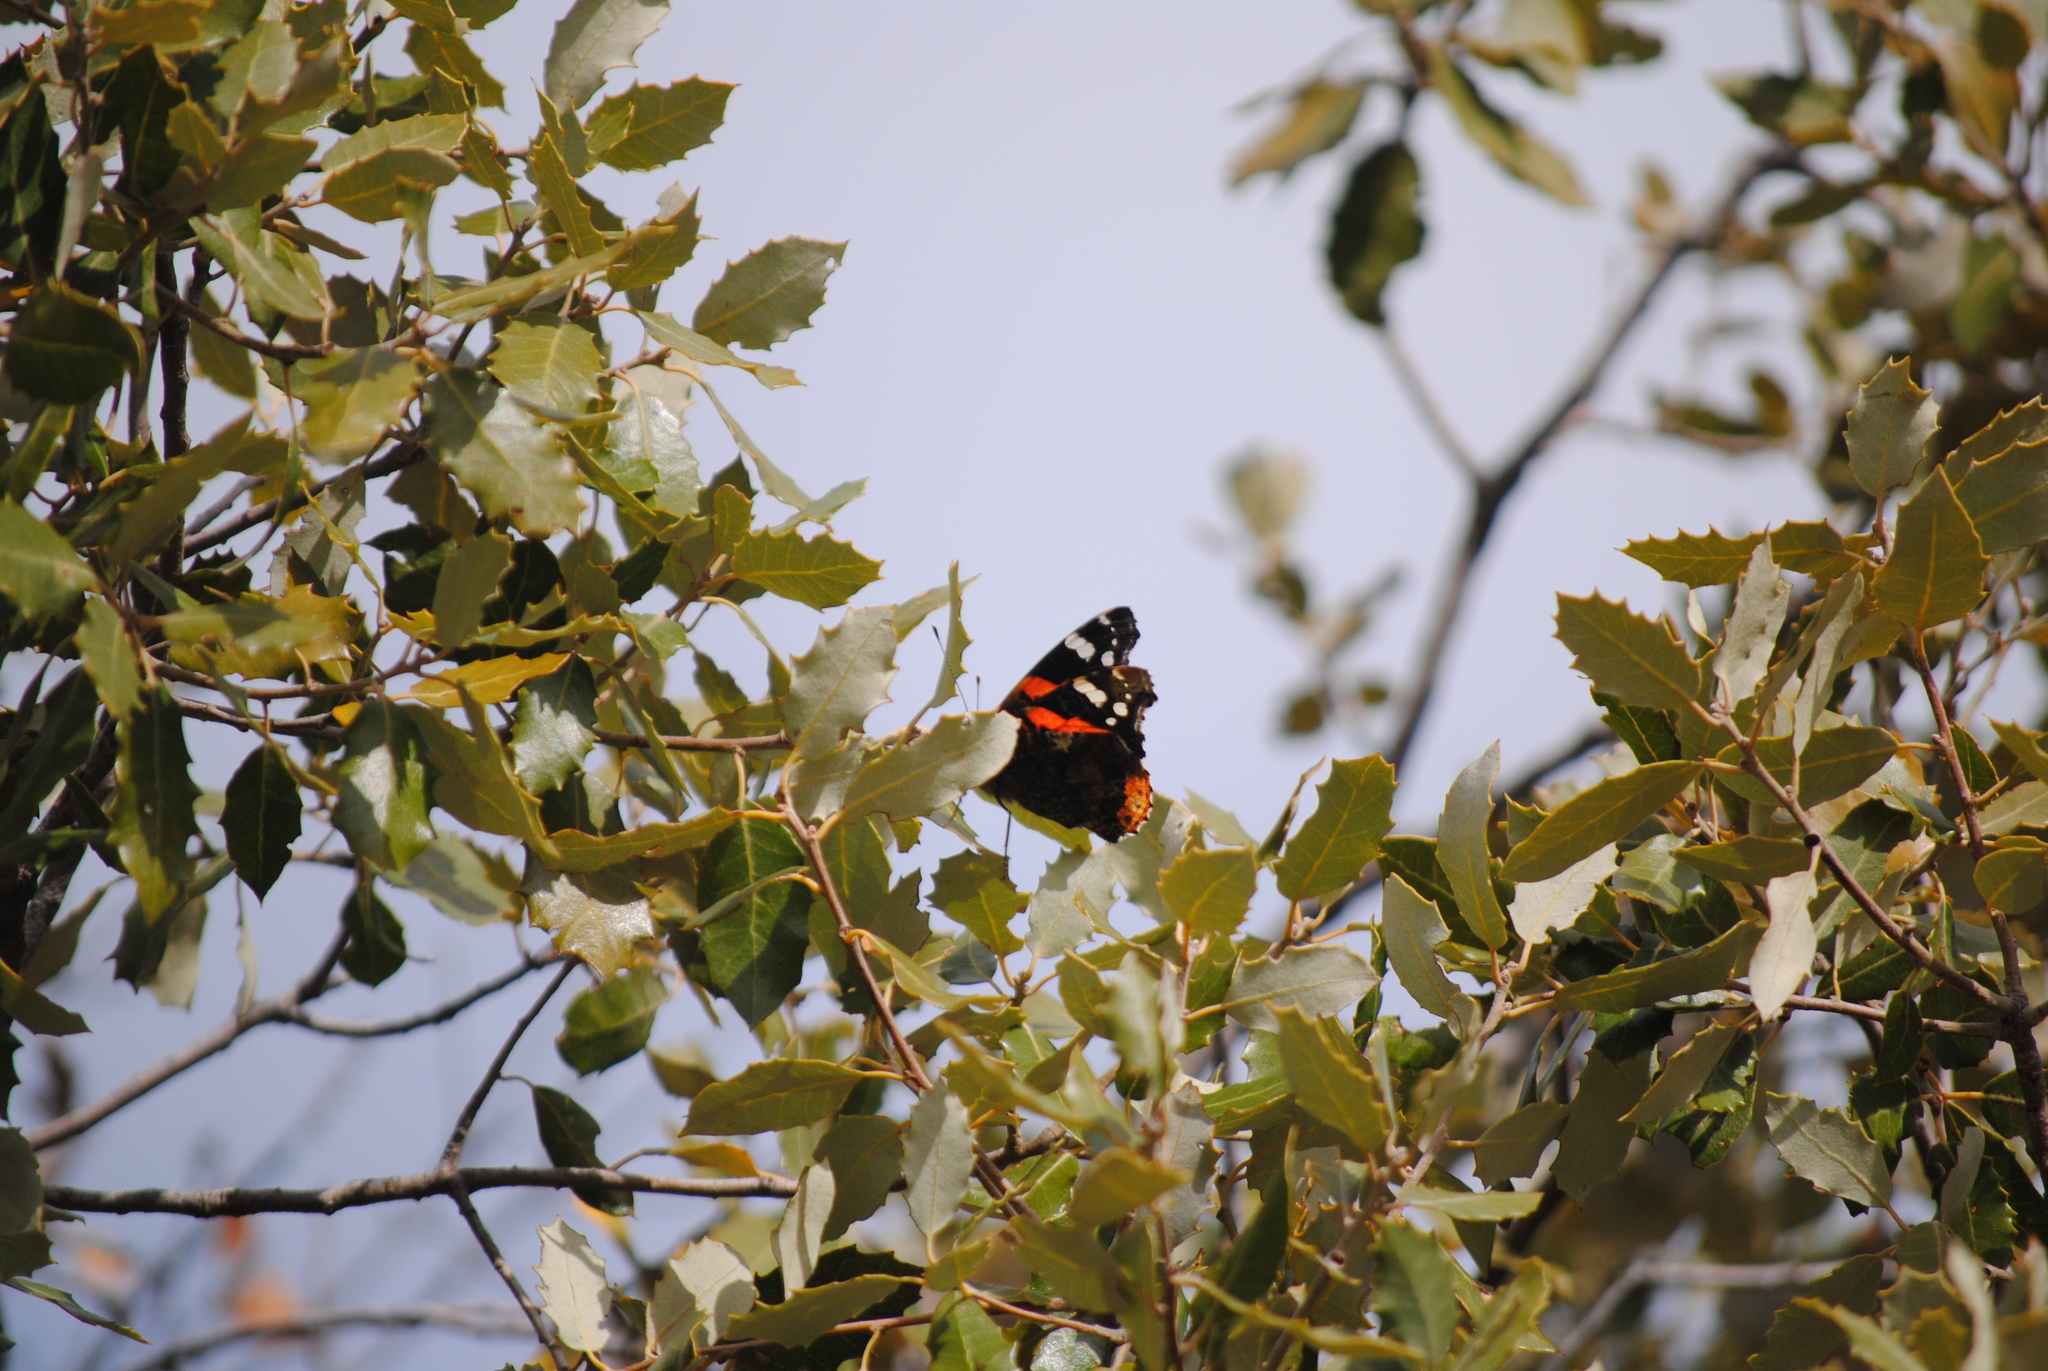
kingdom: Animalia
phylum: Arthropoda
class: Insecta
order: Lepidoptera
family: Nymphalidae
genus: Vanessa
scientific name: Vanessa atalanta
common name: Red admiral
